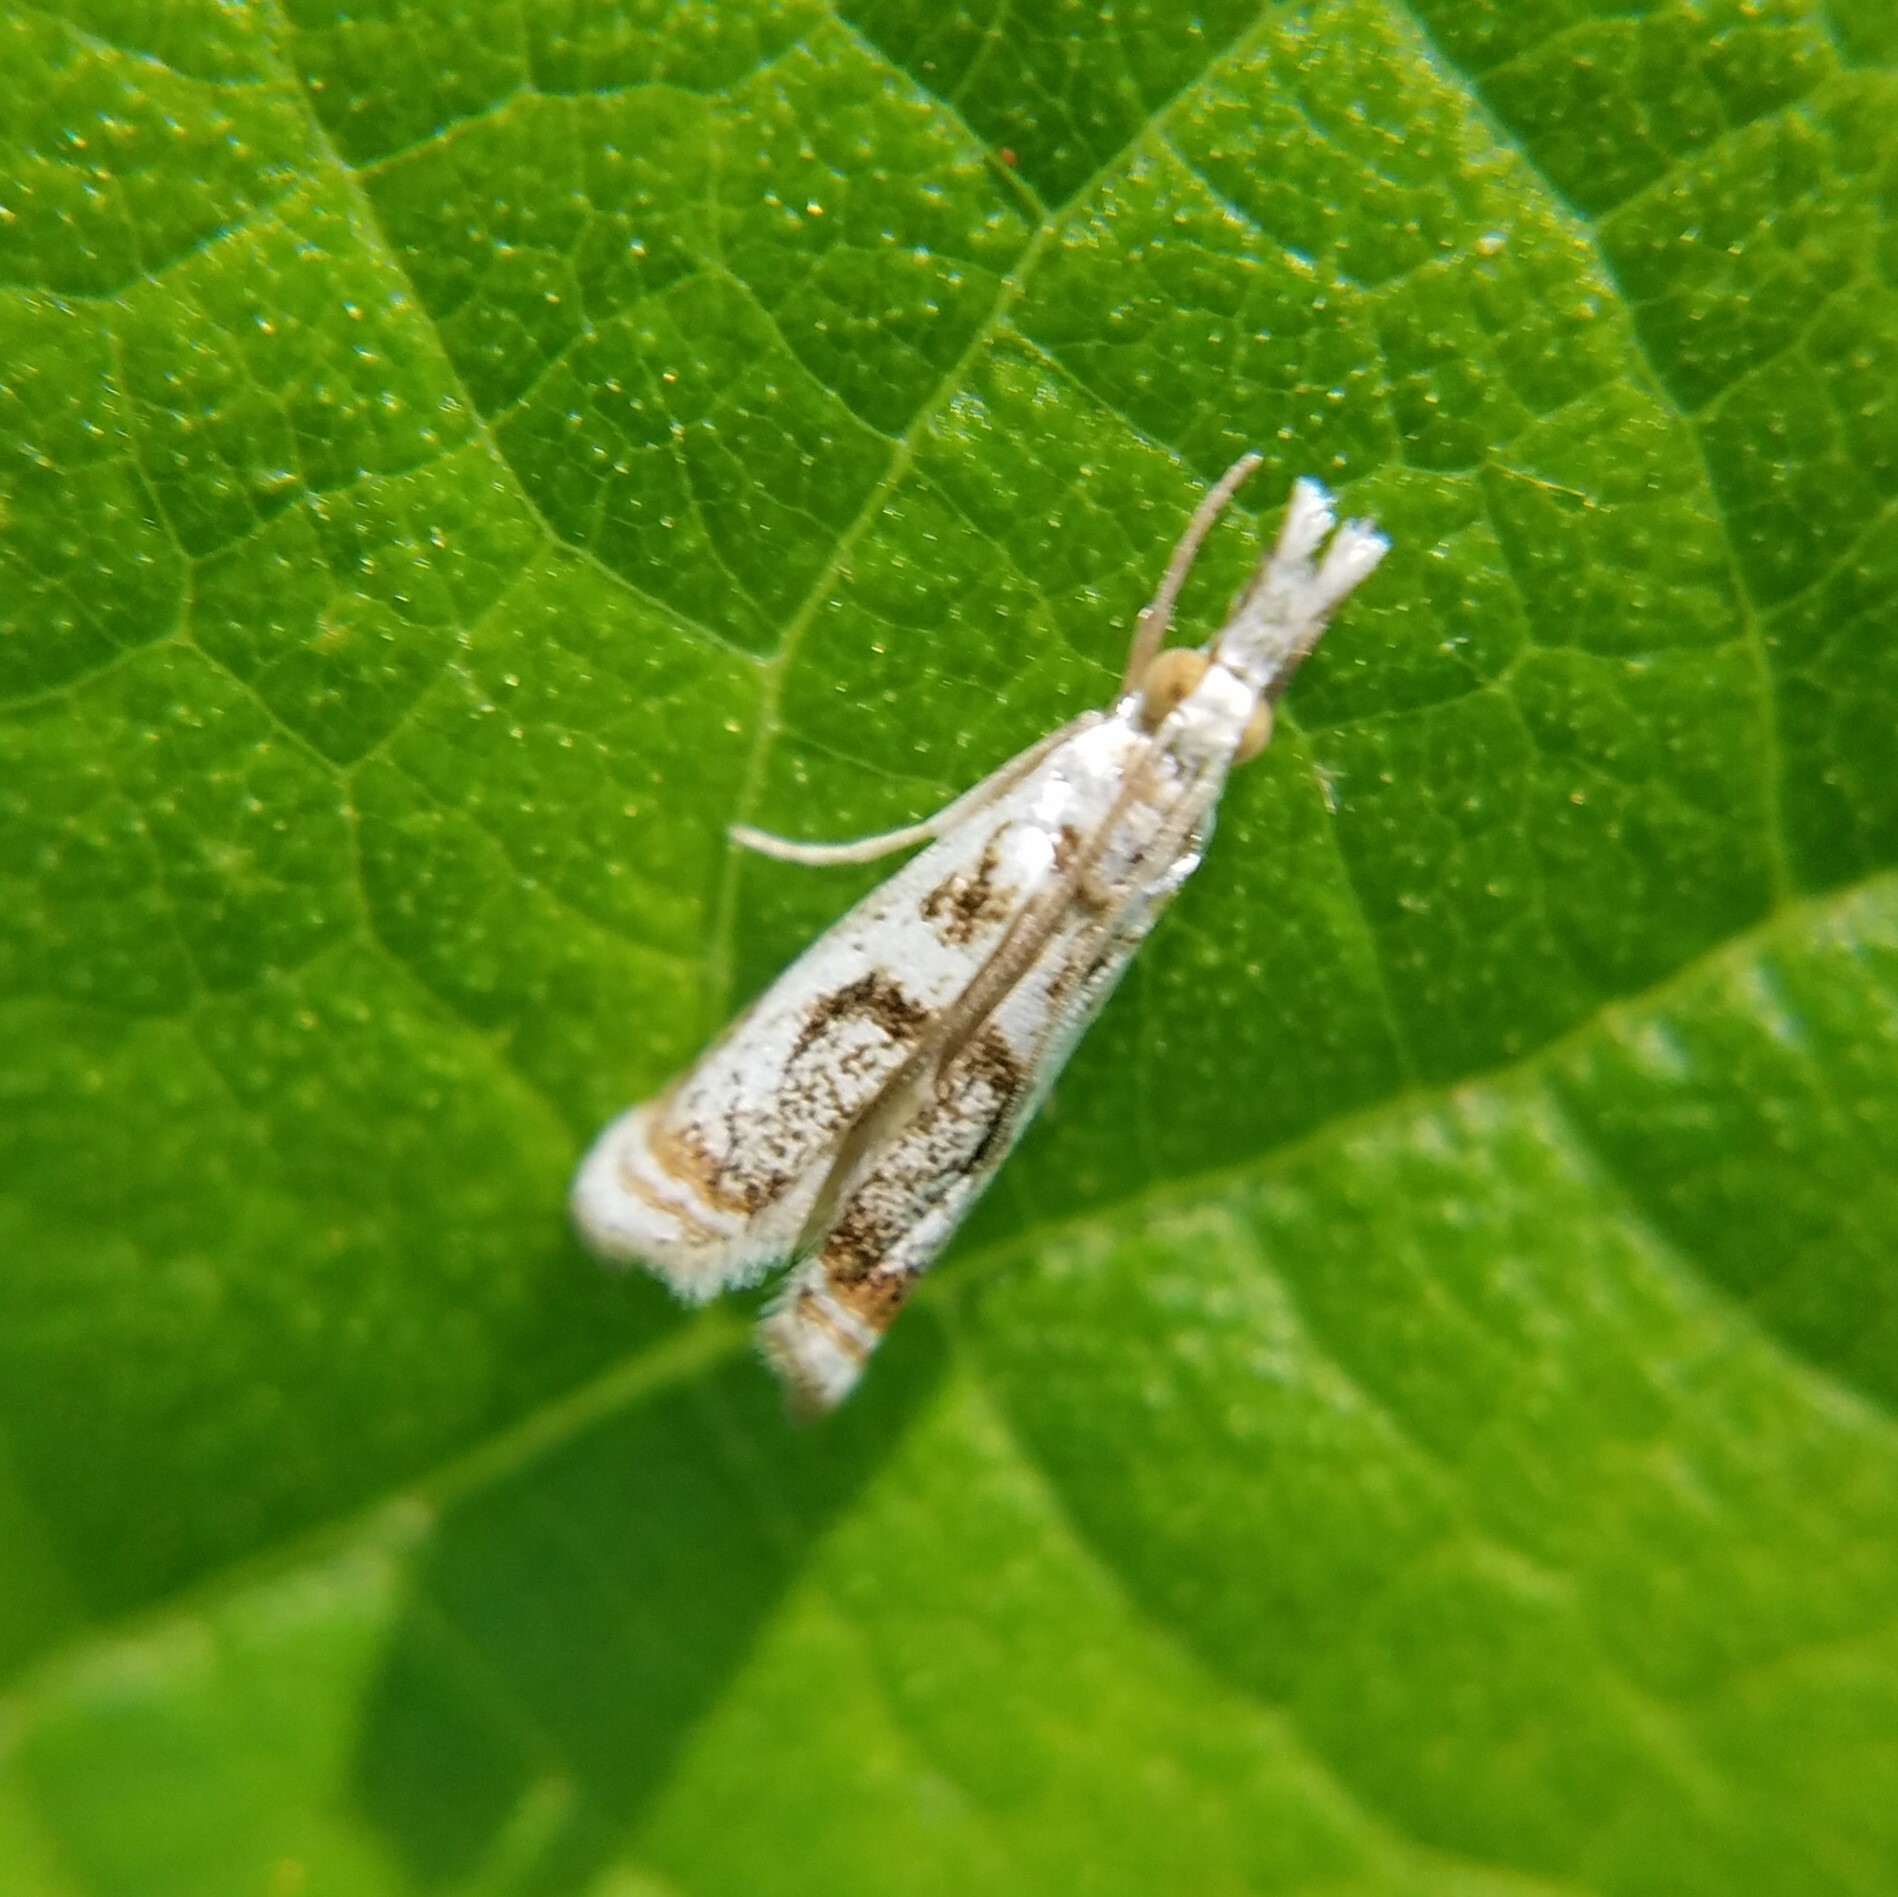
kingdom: Animalia
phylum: Arthropoda
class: Insecta
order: Lepidoptera
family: Crambidae
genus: Microcrambus
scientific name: Microcrambus elegans
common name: Elegant grass-veneer
